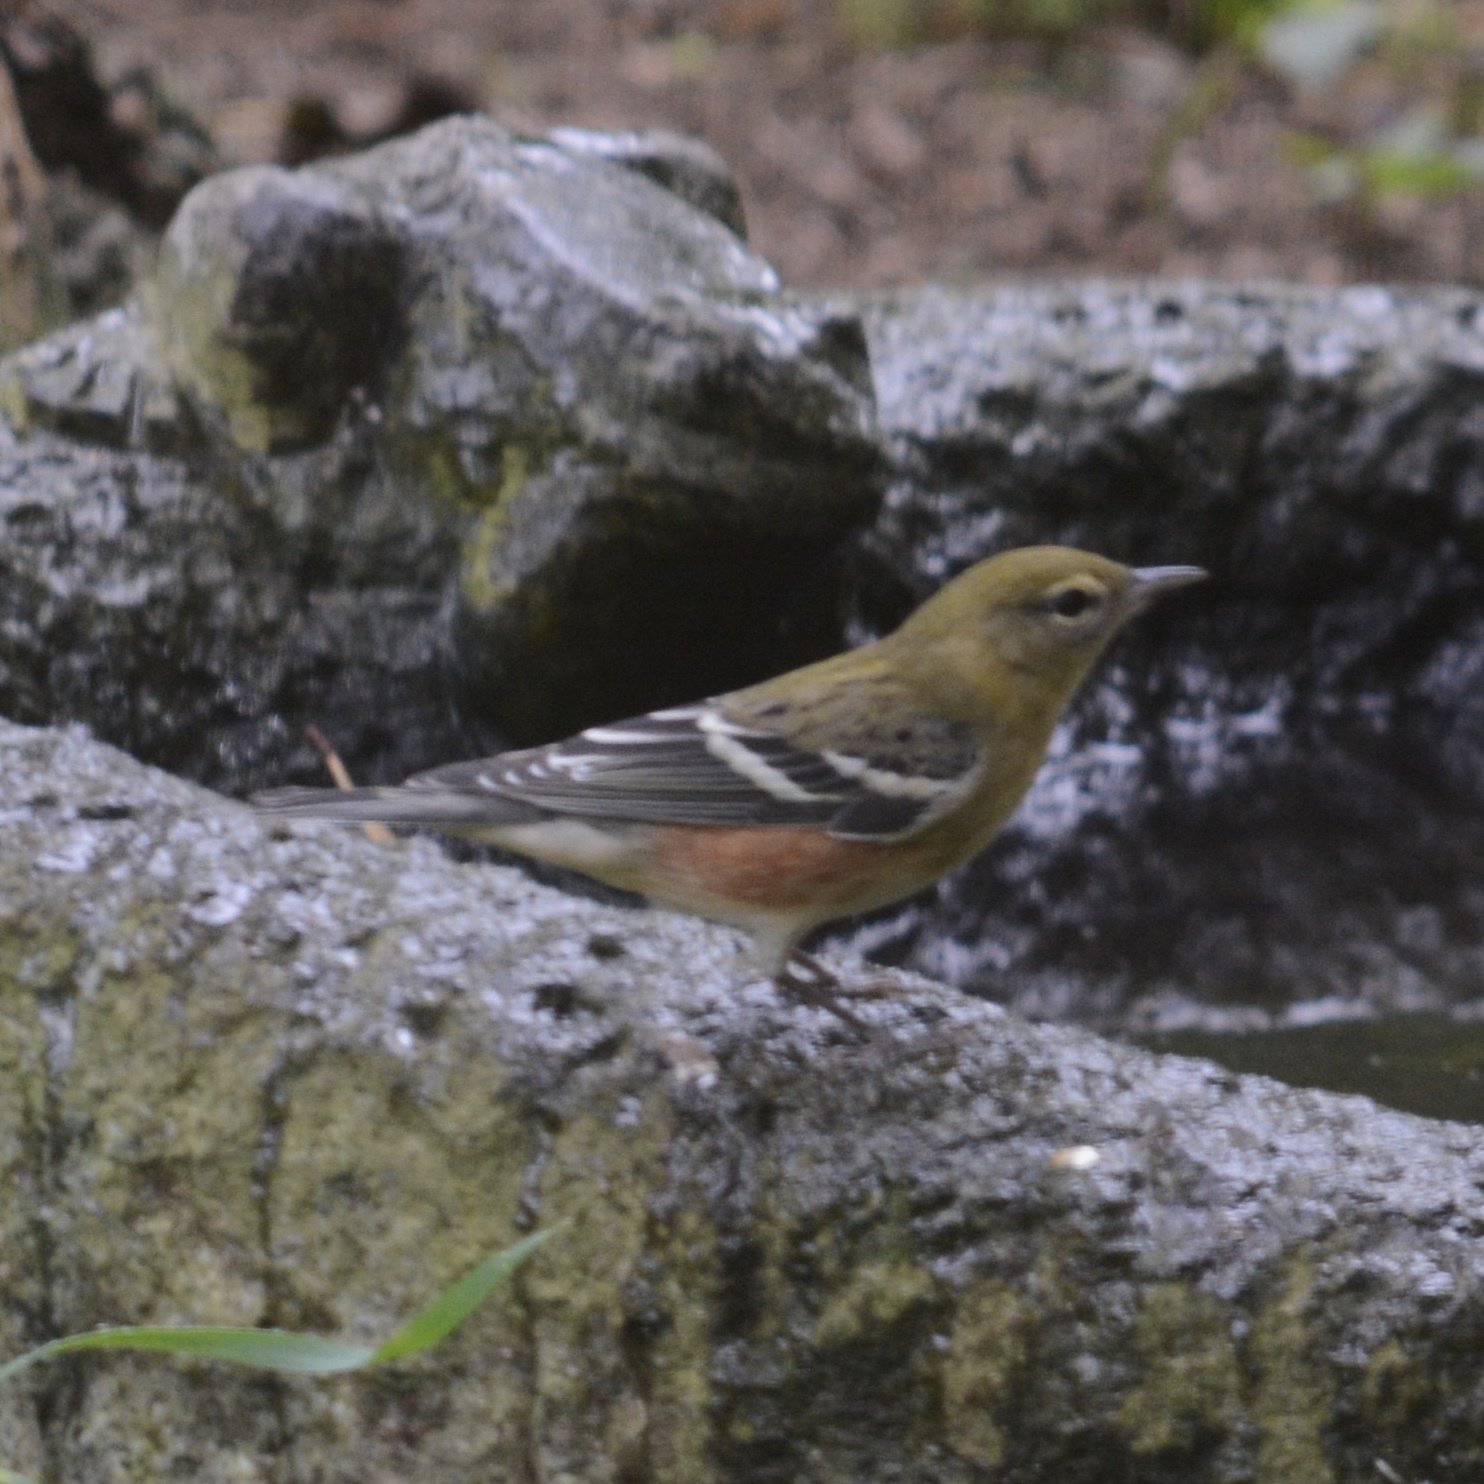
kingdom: Animalia
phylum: Chordata
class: Aves
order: Passeriformes
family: Parulidae
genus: Setophaga
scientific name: Setophaga castanea
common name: Bay-breasted warbler
